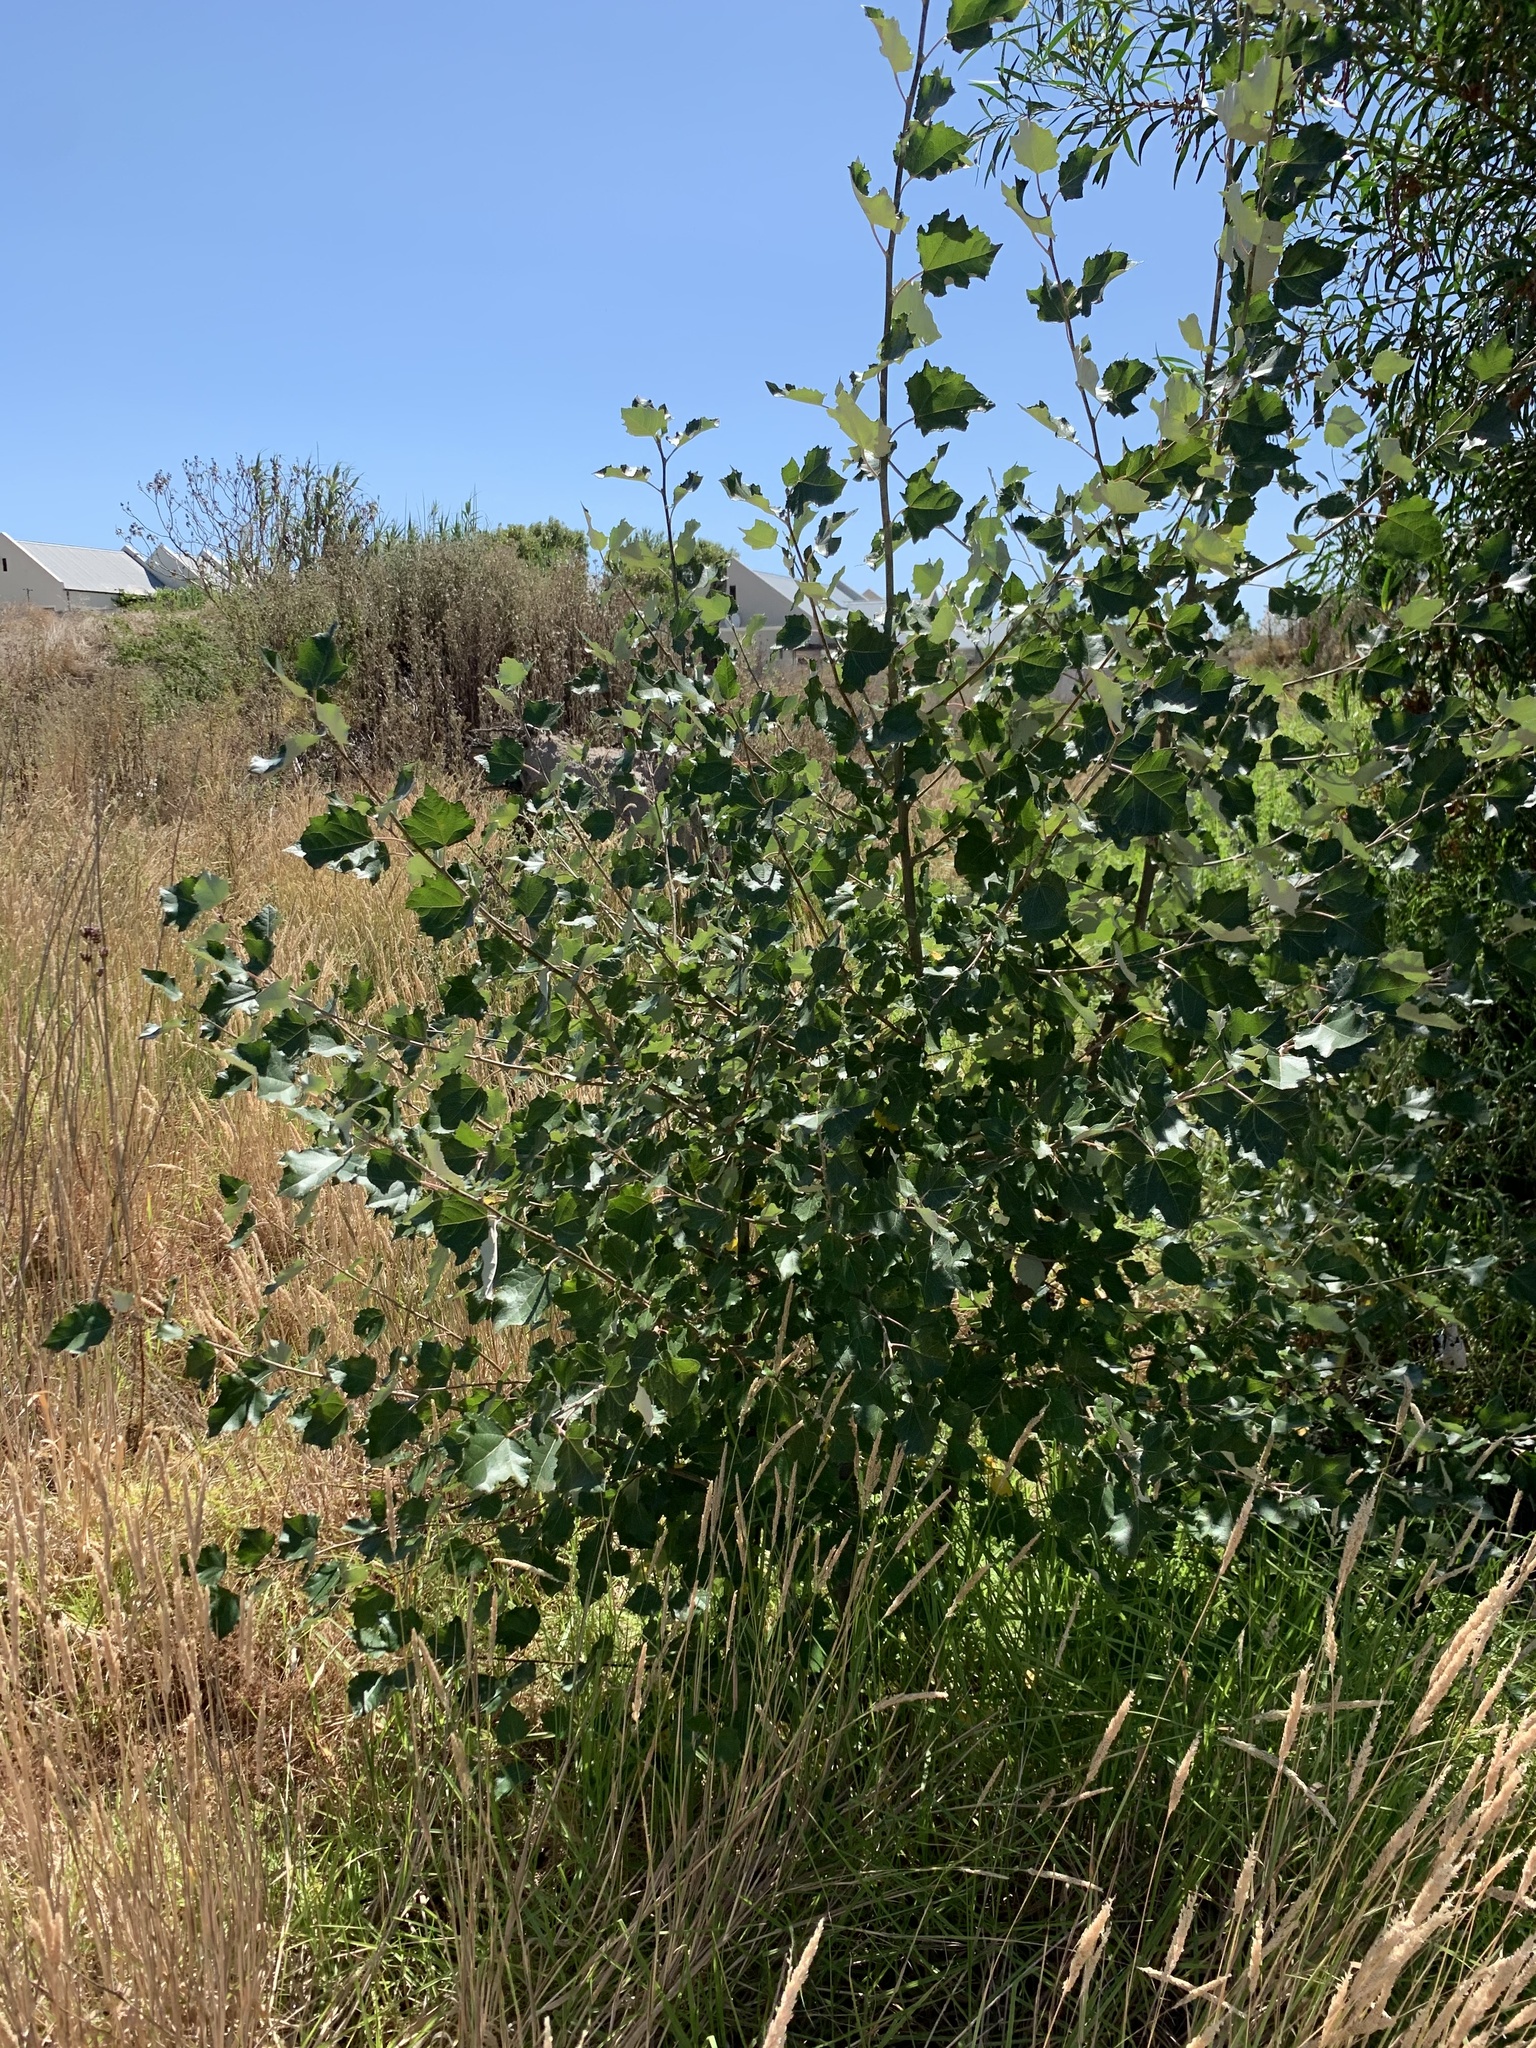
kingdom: Plantae
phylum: Tracheophyta
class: Magnoliopsida
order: Malpighiales
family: Salicaceae
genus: Populus
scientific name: Populus canescens
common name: Gray poplar
